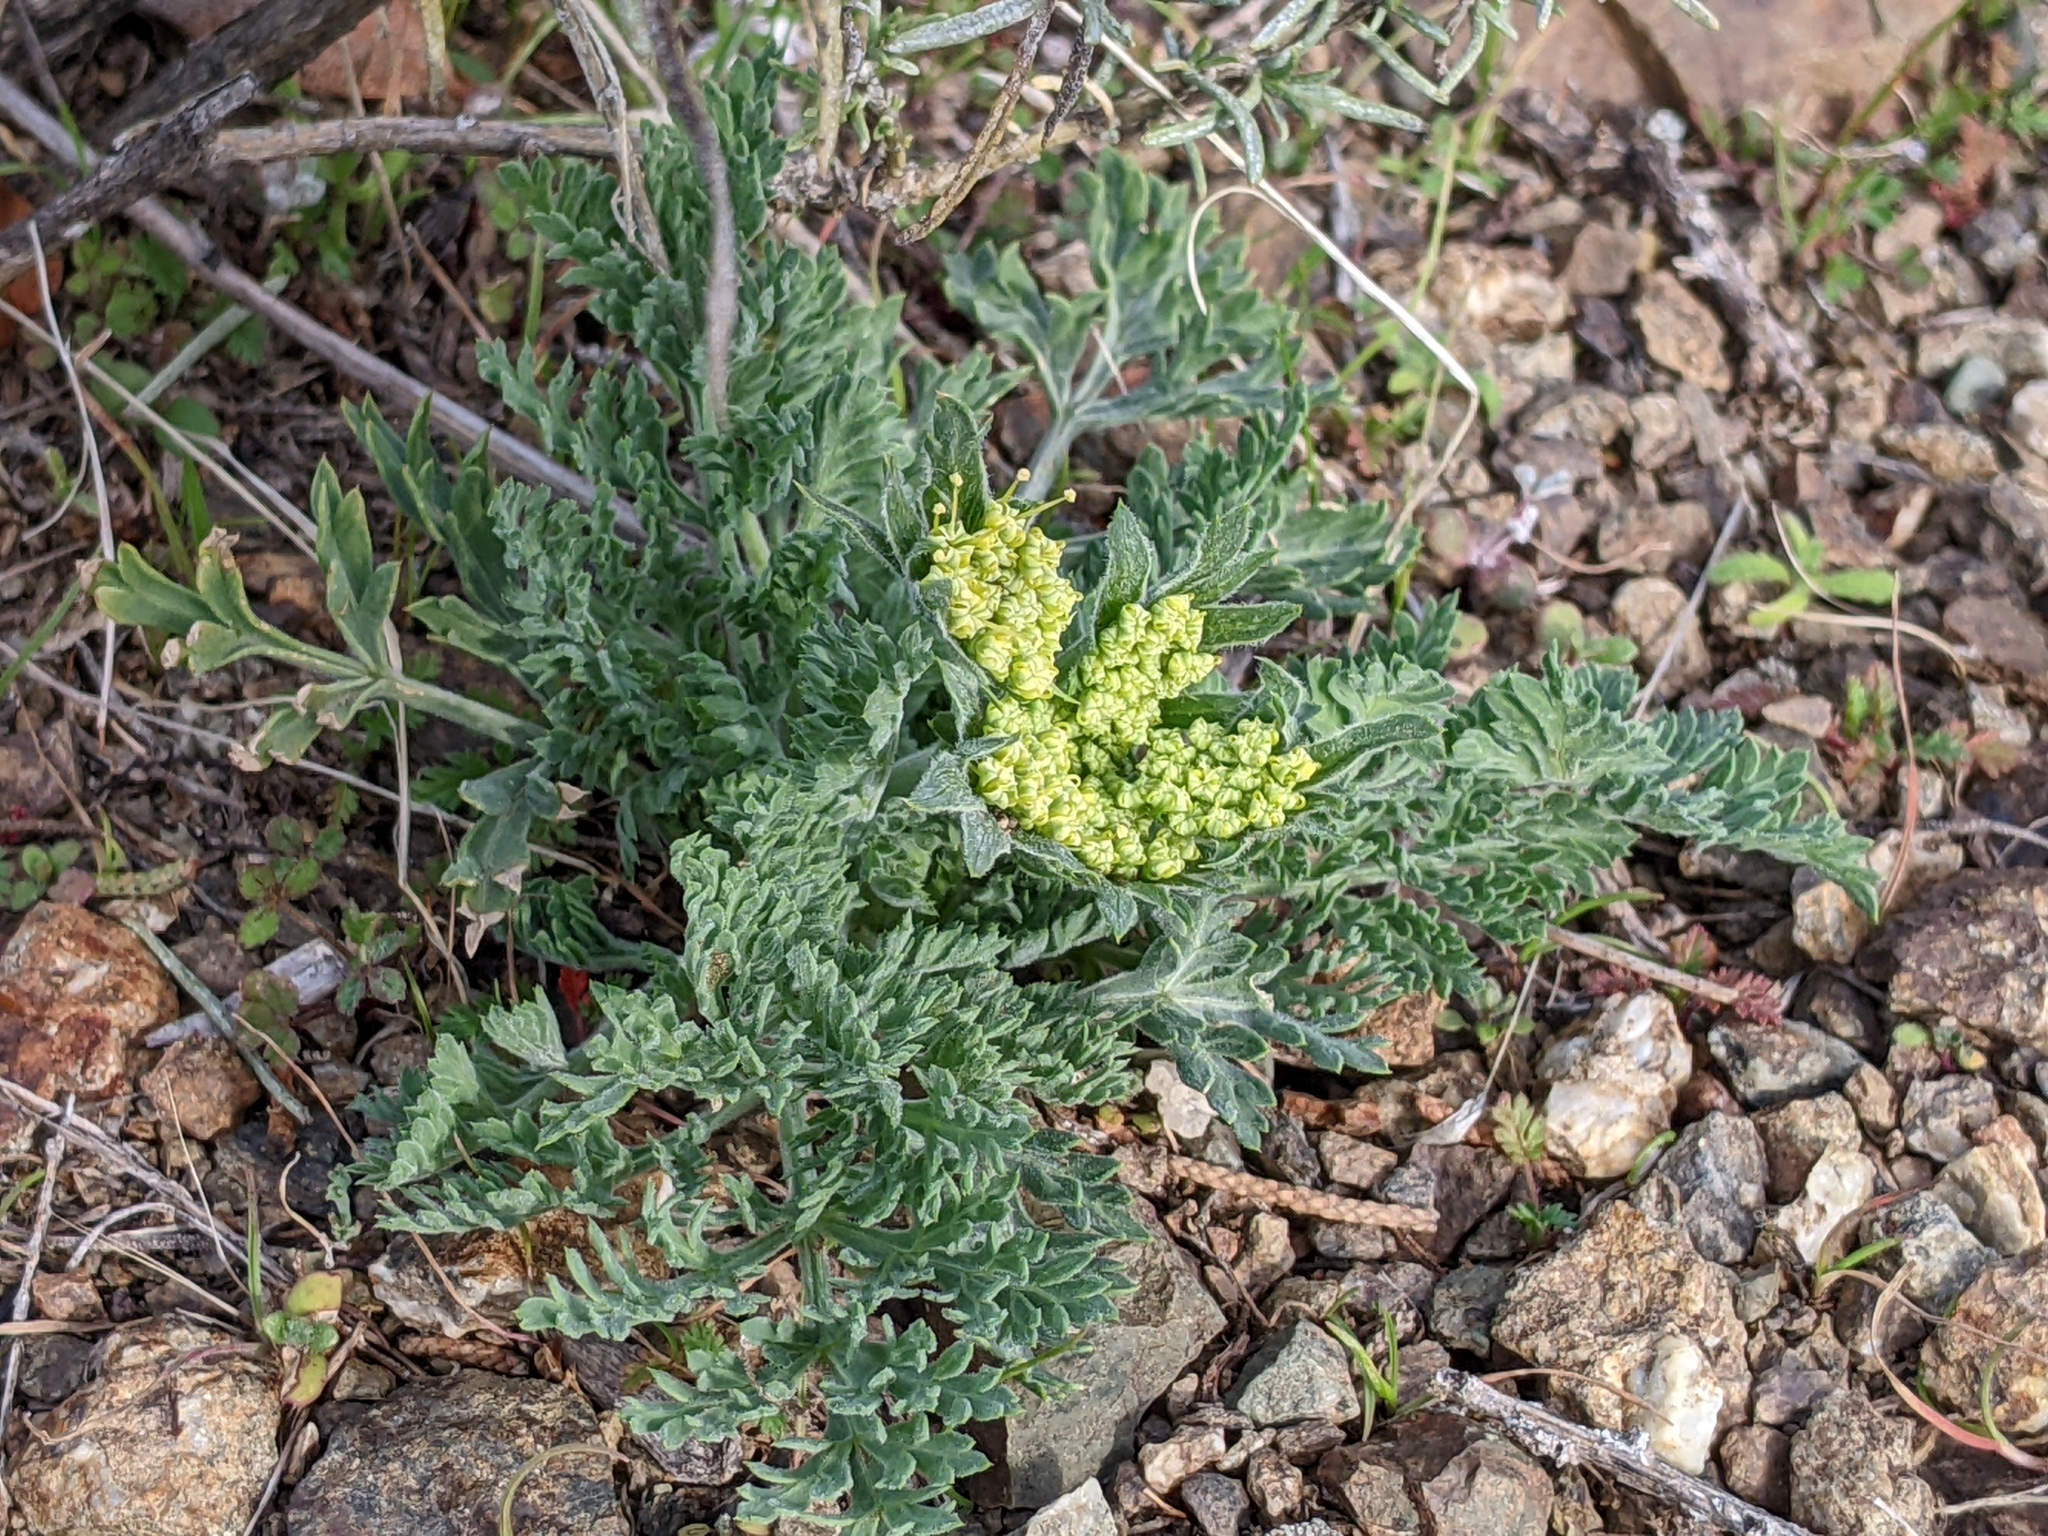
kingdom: Plantae
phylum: Tracheophyta
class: Magnoliopsida
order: Apiales
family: Apiaceae
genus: Lomatium
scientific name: Lomatium macrocarpum
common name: Big-seed biscuitroot
